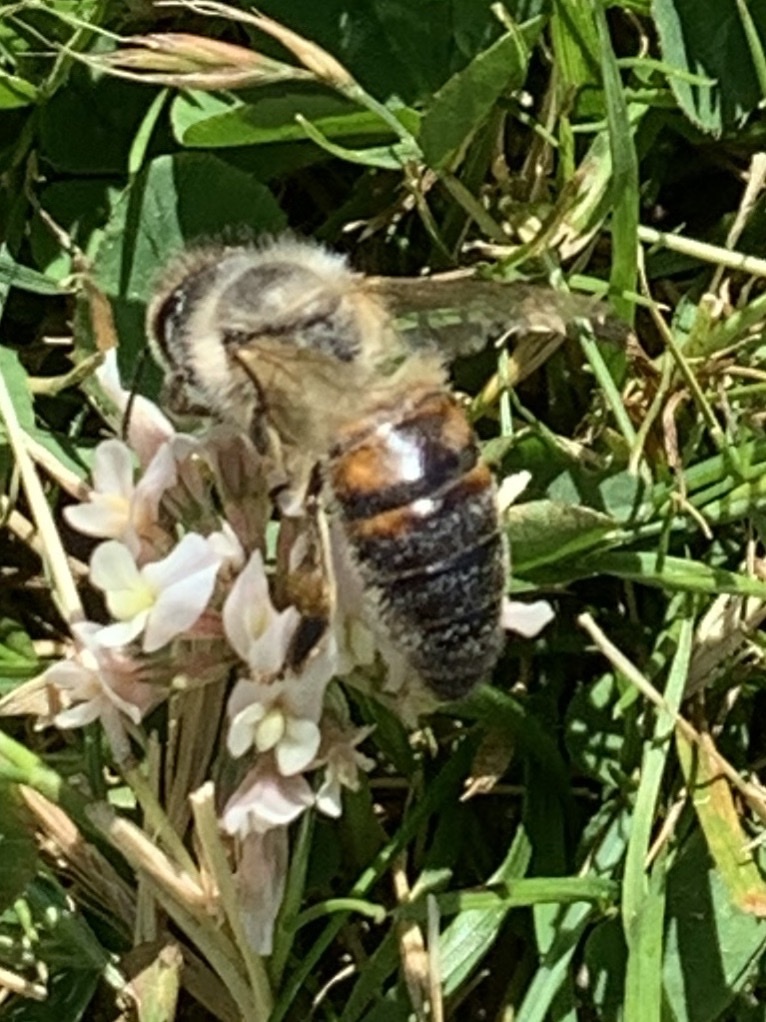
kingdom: Animalia
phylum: Arthropoda
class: Insecta
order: Hymenoptera
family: Apidae
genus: Apis
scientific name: Apis mellifera
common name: Honey bee
